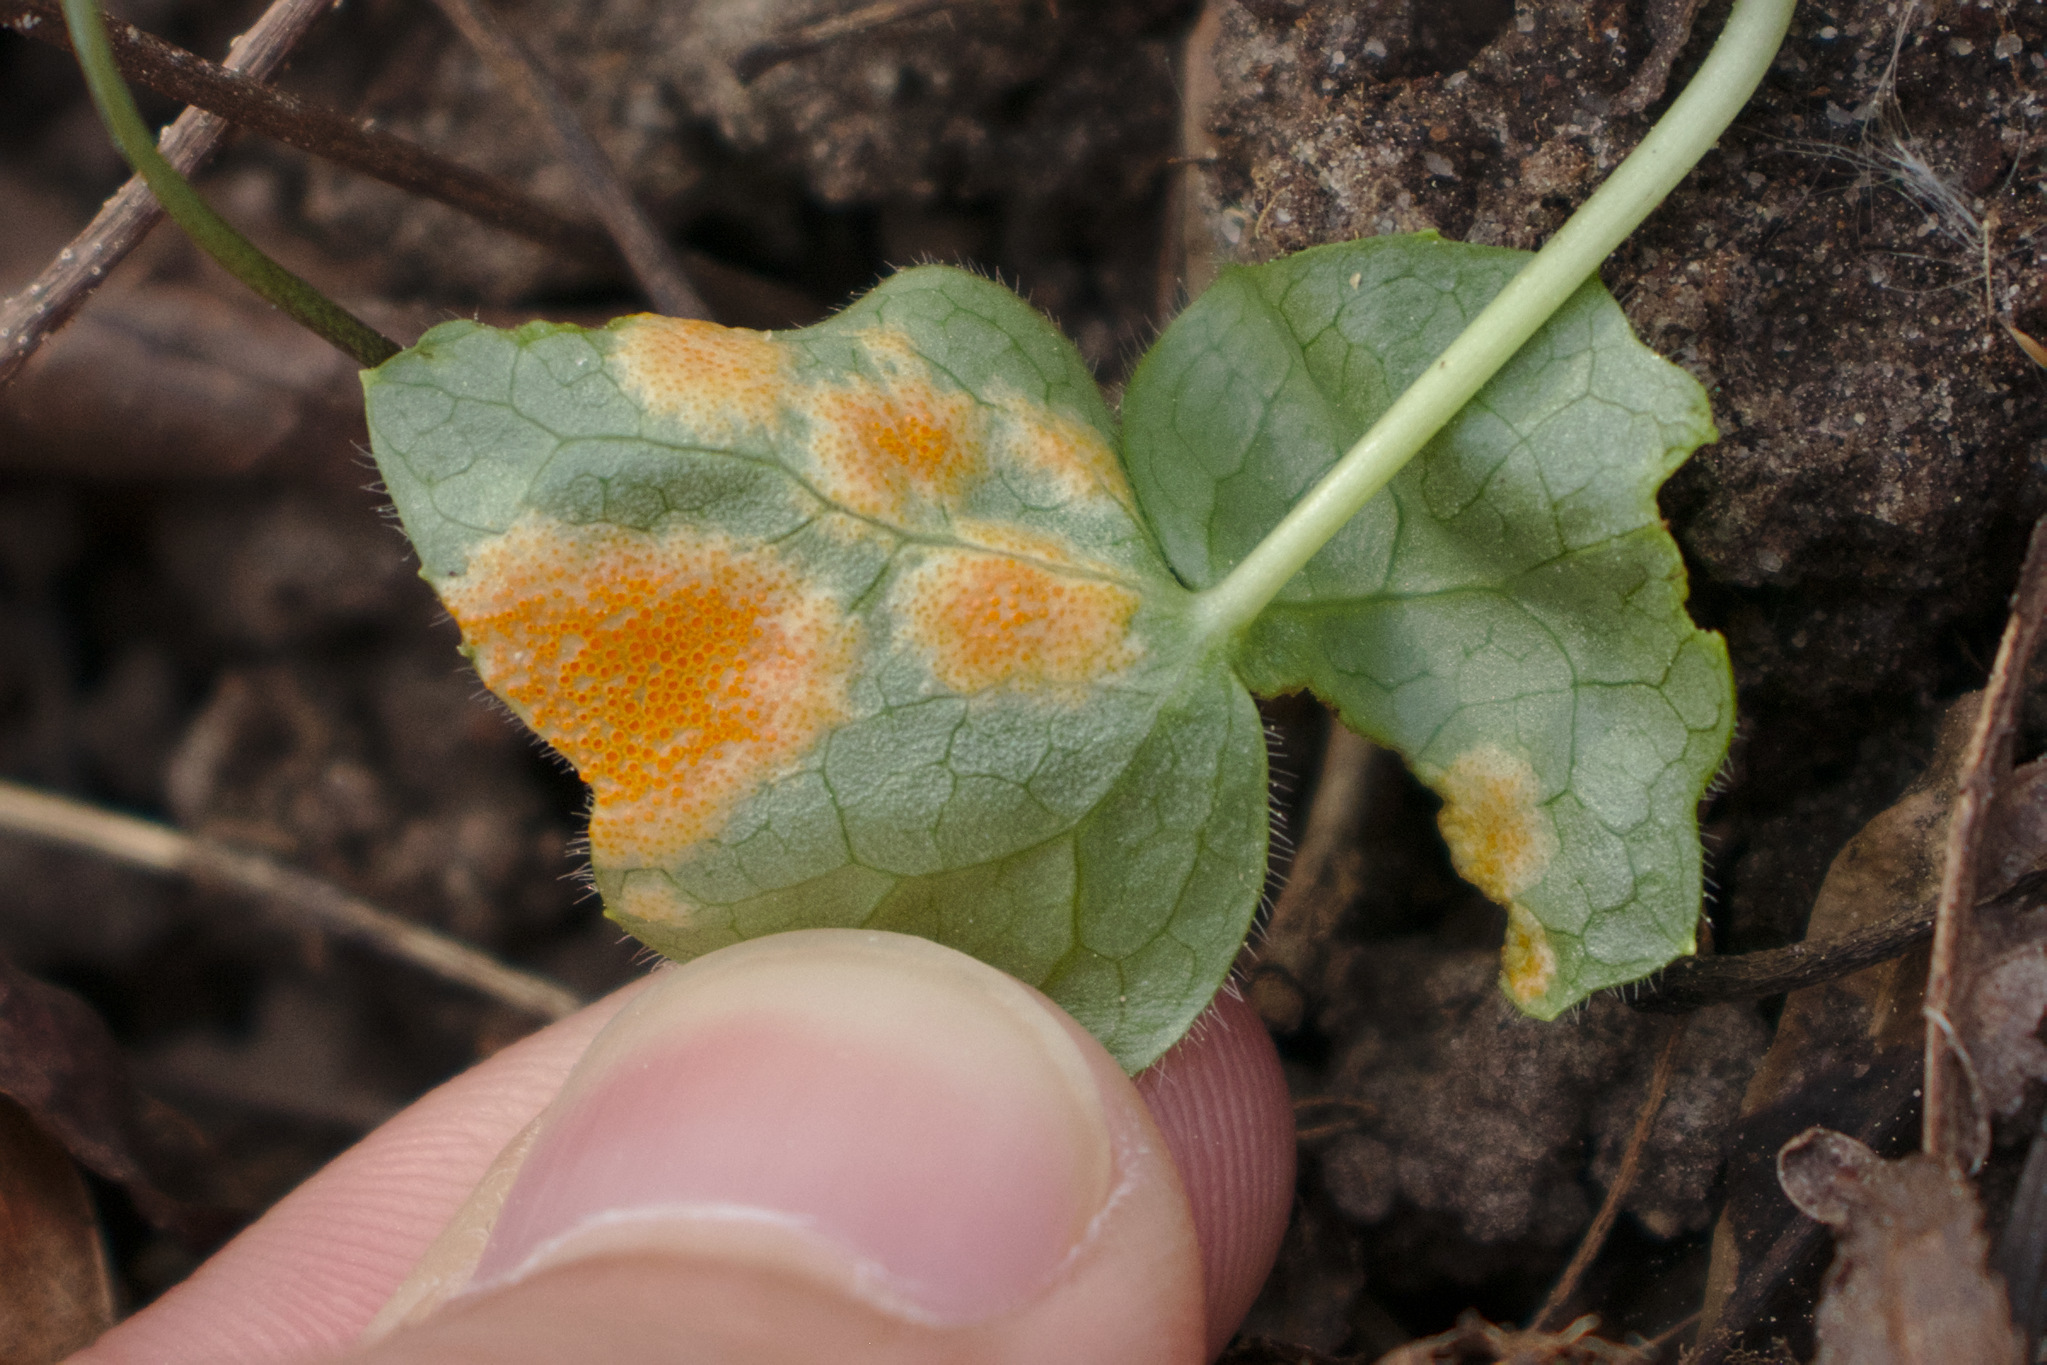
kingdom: Fungi
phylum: Basidiomycota
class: Pucciniomycetes
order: Pucciniales
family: Pucciniaceae
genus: Puccinia
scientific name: Puccinia podophylli
